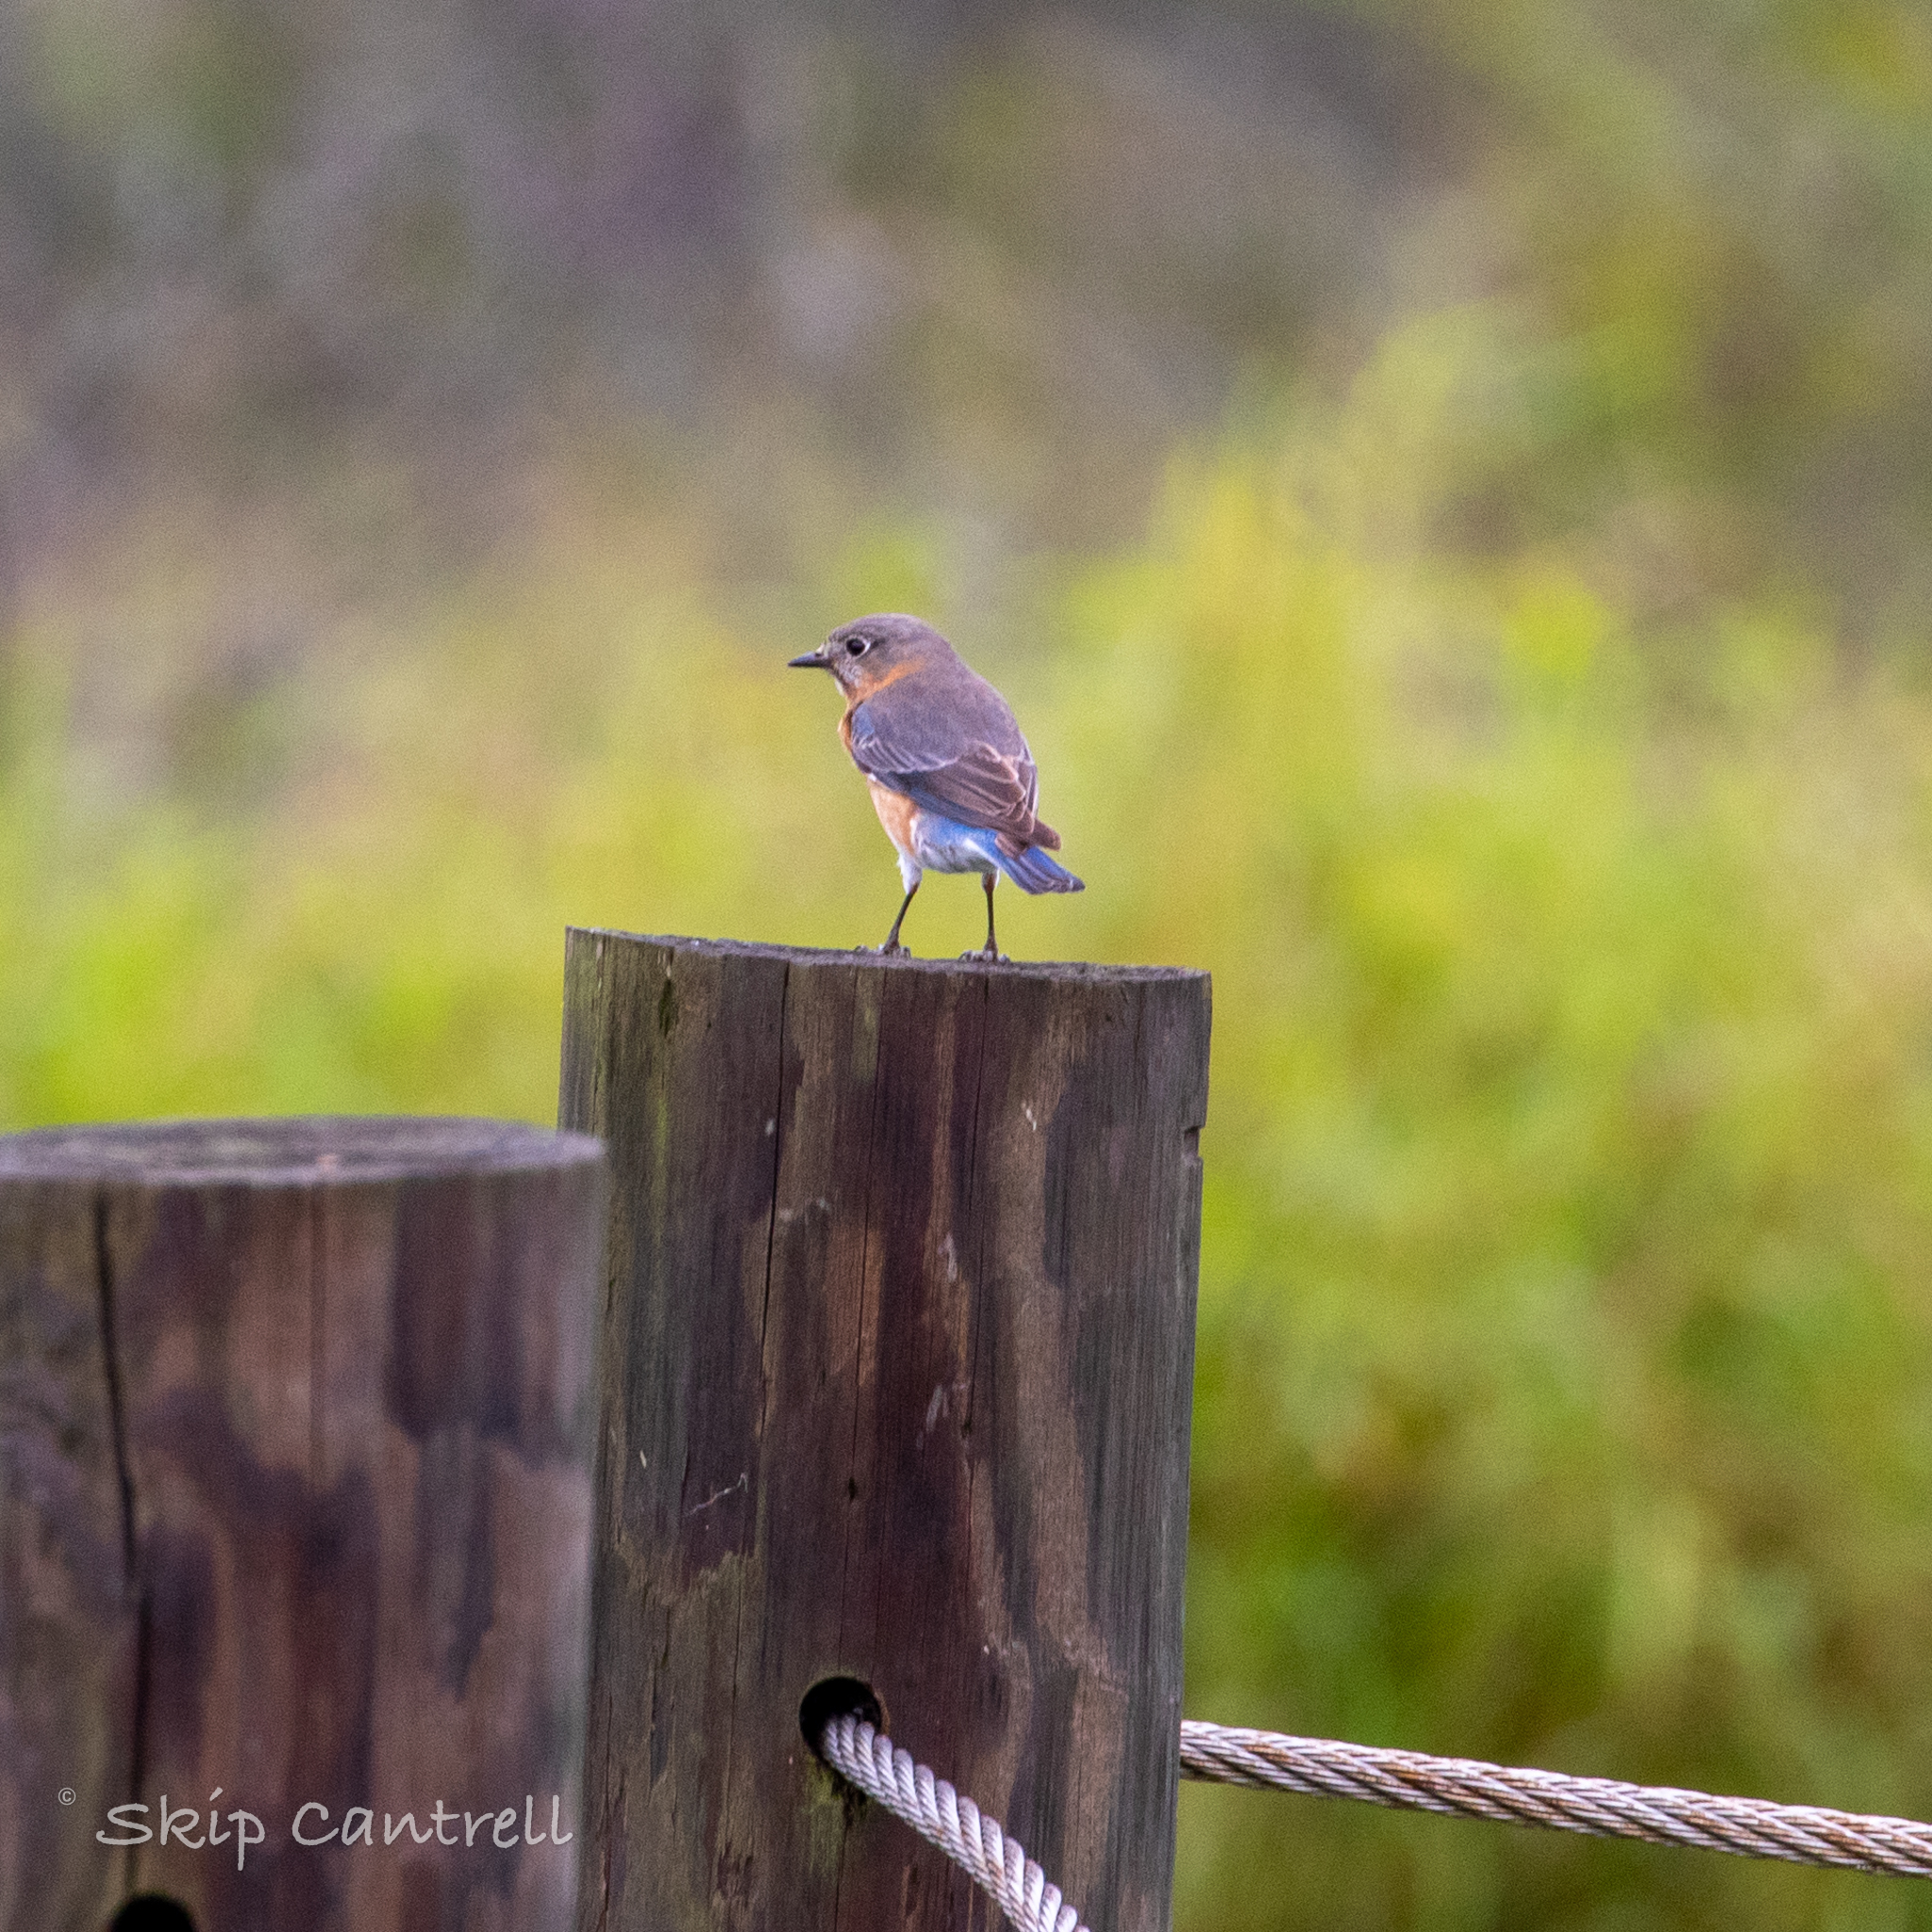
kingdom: Animalia
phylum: Chordata
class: Aves
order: Passeriformes
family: Turdidae
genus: Sialia
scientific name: Sialia sialis
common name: Eastern bluebird
